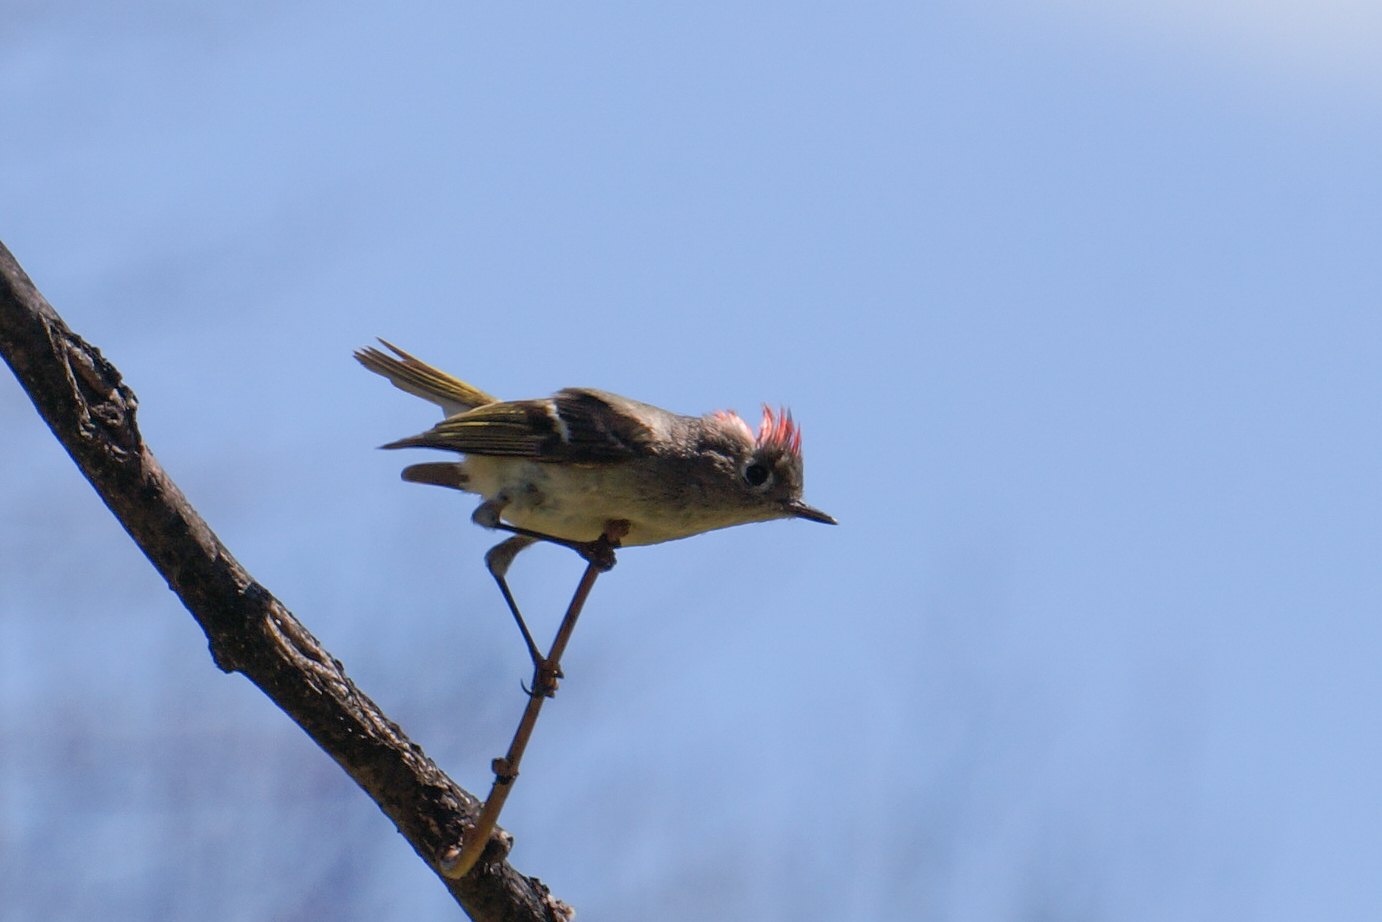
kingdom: Animalia
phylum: Chordata
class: Aves
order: Passeriformes
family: Regulidae
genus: Regulus
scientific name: Regulus calendula
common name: Ruby-crowned kinglet
